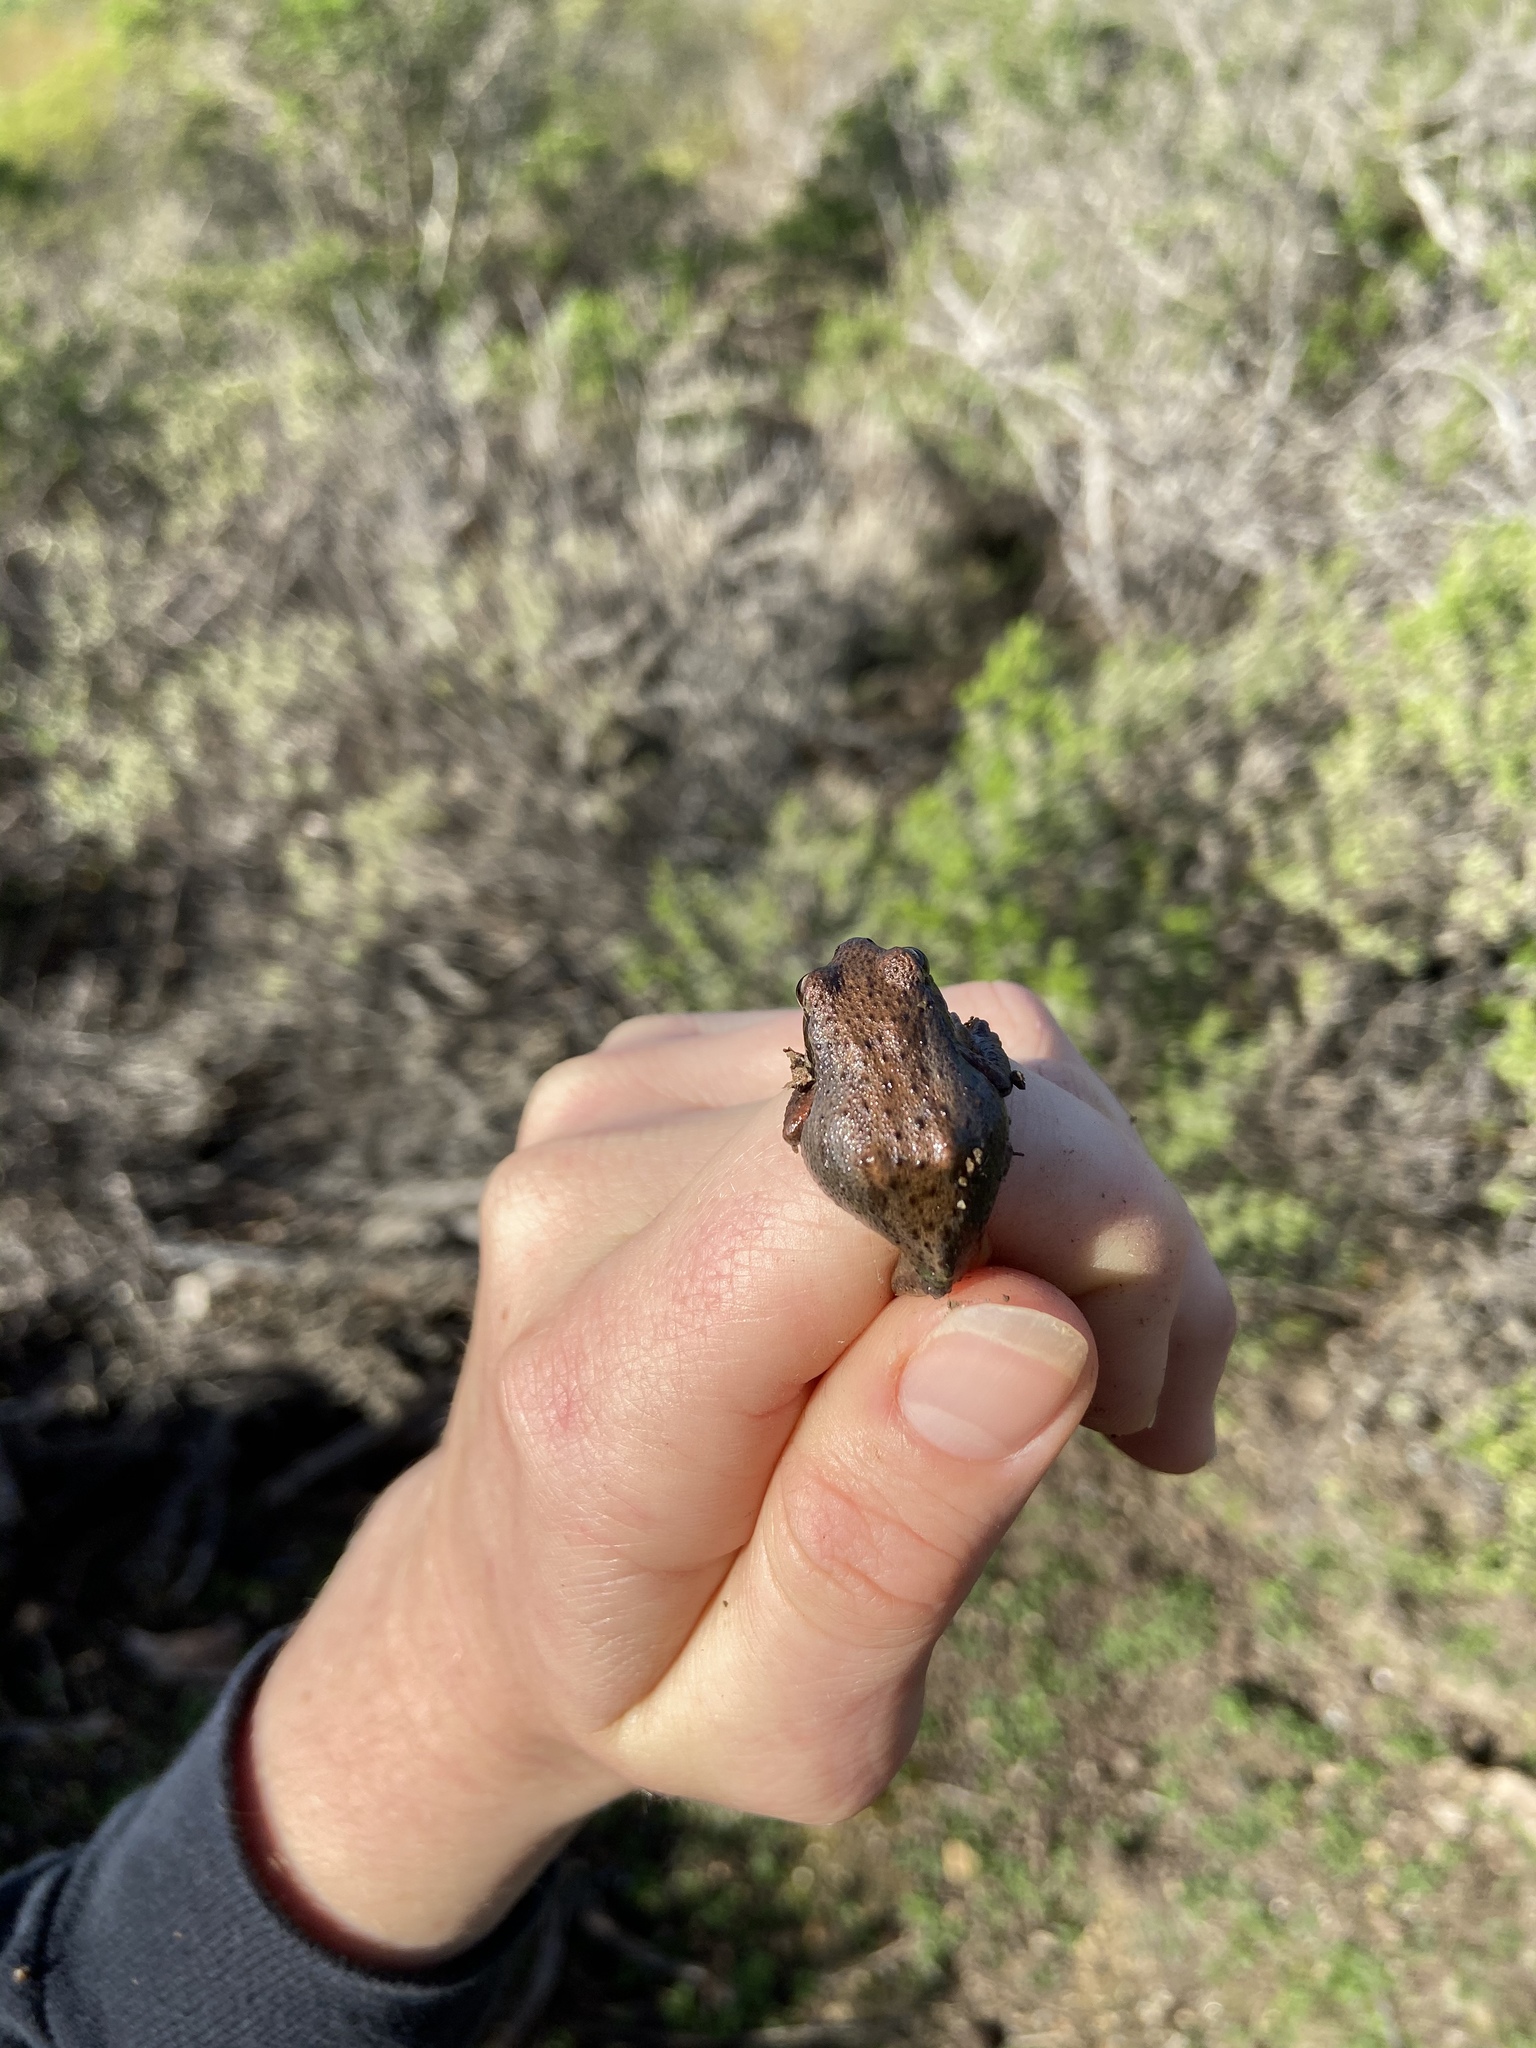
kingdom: Animalia
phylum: Chordata
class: Amphibia
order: Anura
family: Hylidae
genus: Pseudacris
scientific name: Pseudacris regilla
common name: Pacific chorus frog
